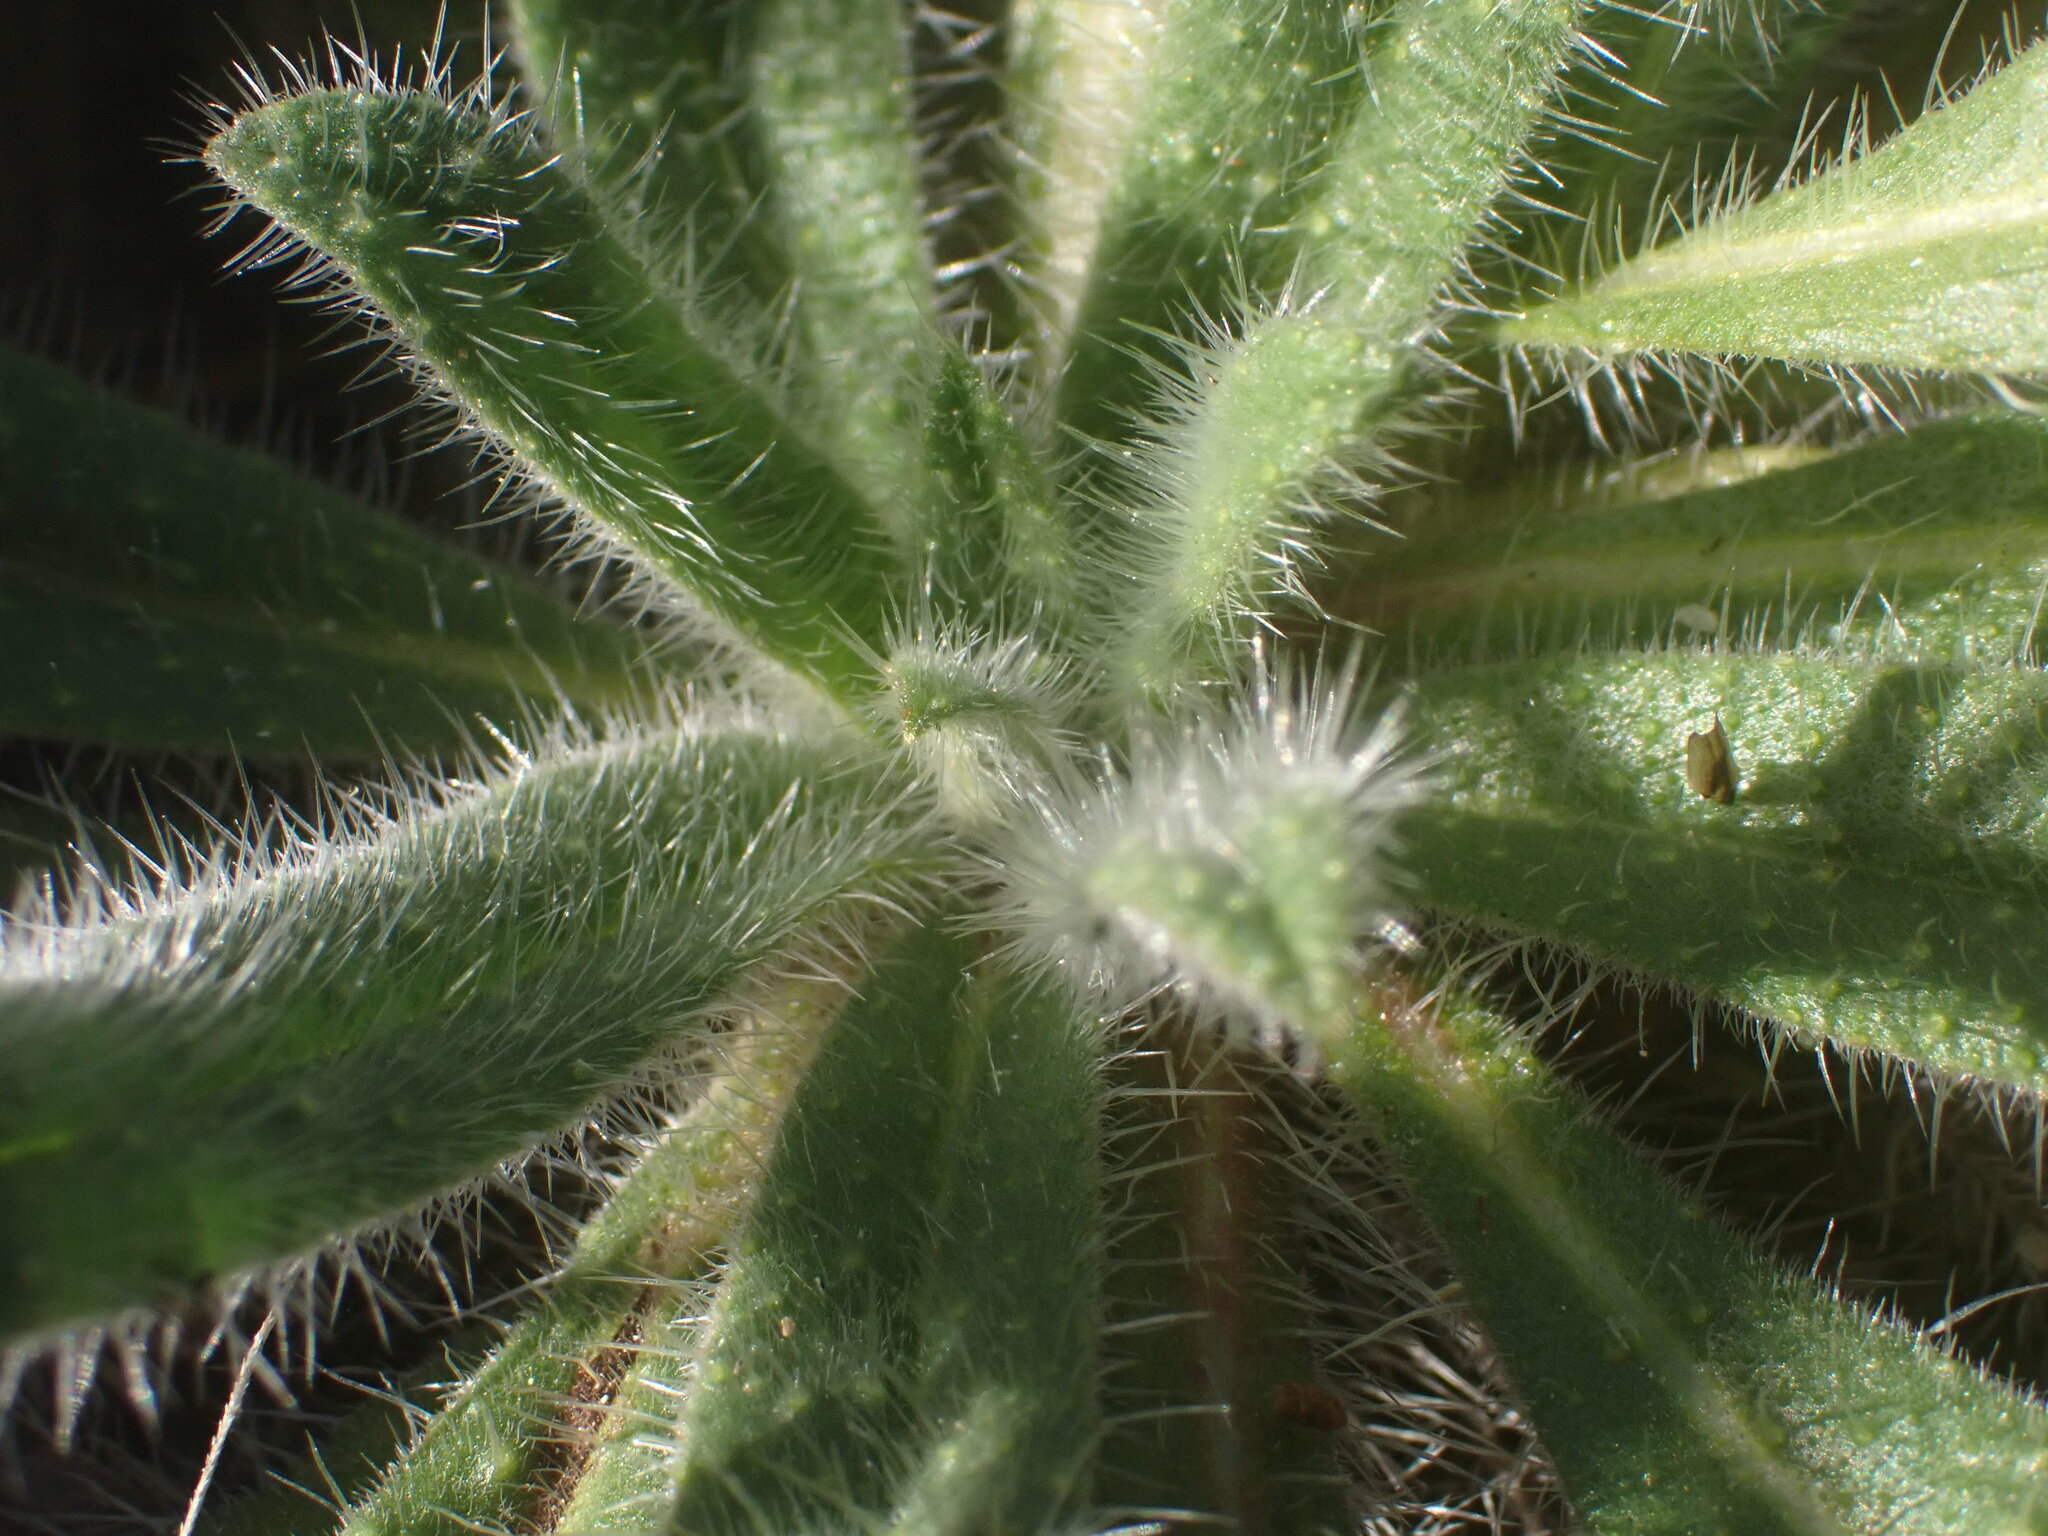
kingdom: Plantae
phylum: Tracheophyta
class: Magnoliopsida
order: Boraginales
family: Boraginaceae
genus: Echium
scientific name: Echium vulgare
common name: Common viper's bugloss
